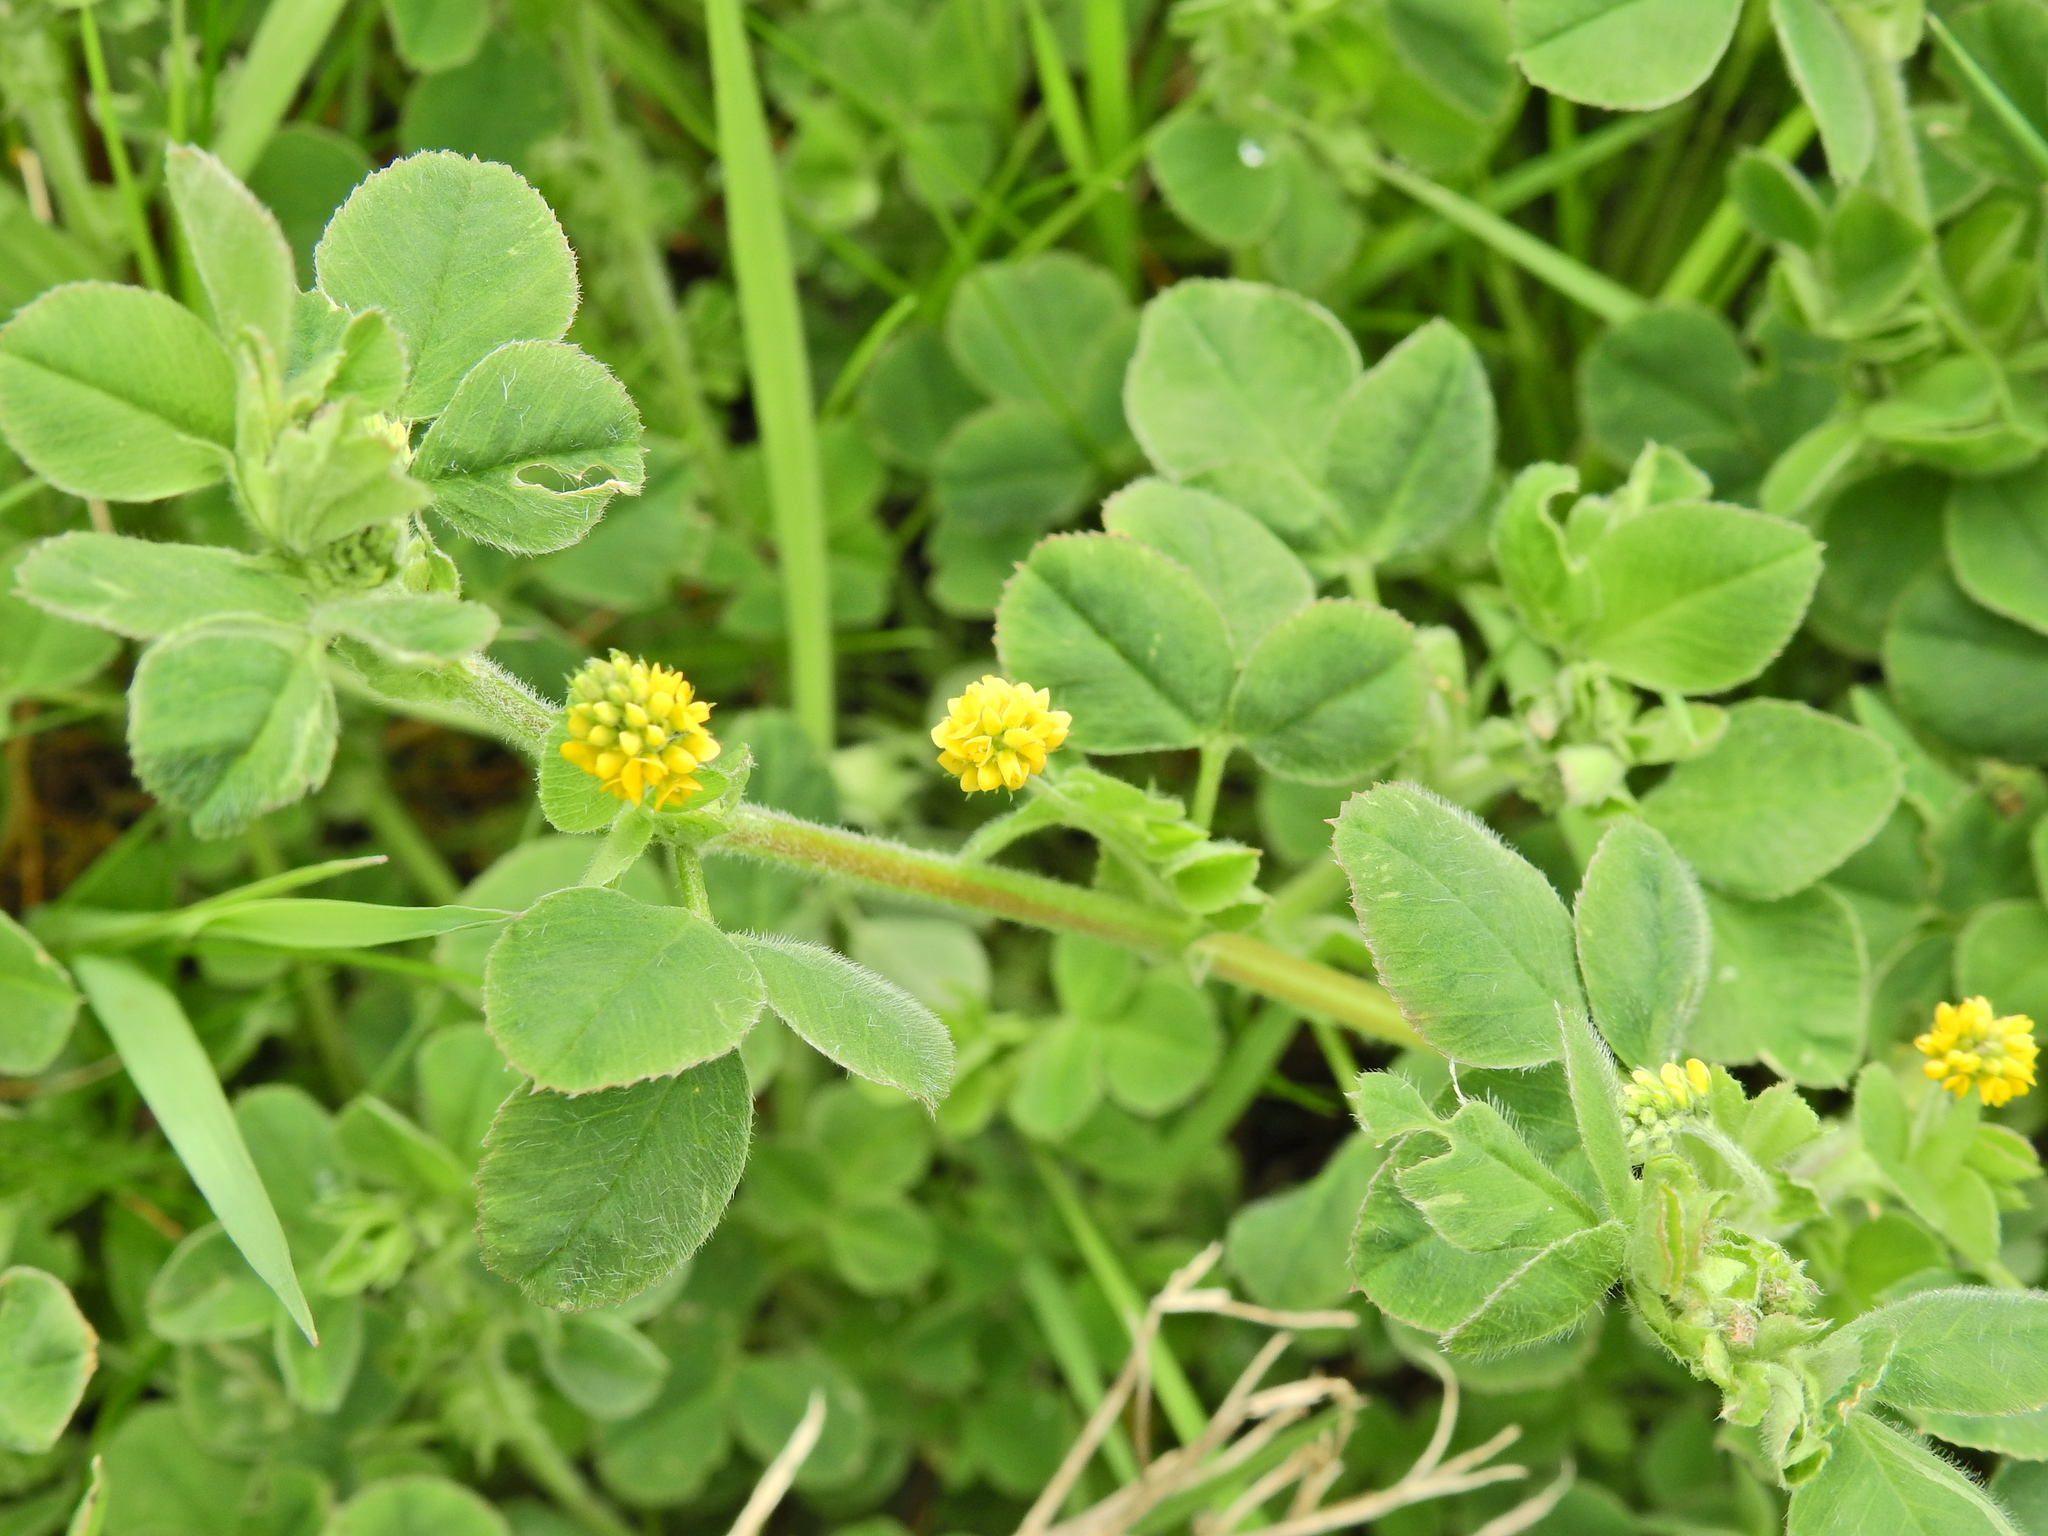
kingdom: Plantae
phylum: Tracheophyta
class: Magnoliopsida
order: Fabales
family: Fabaceae
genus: Medicago
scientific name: Medicago lupulina
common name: Black medick
